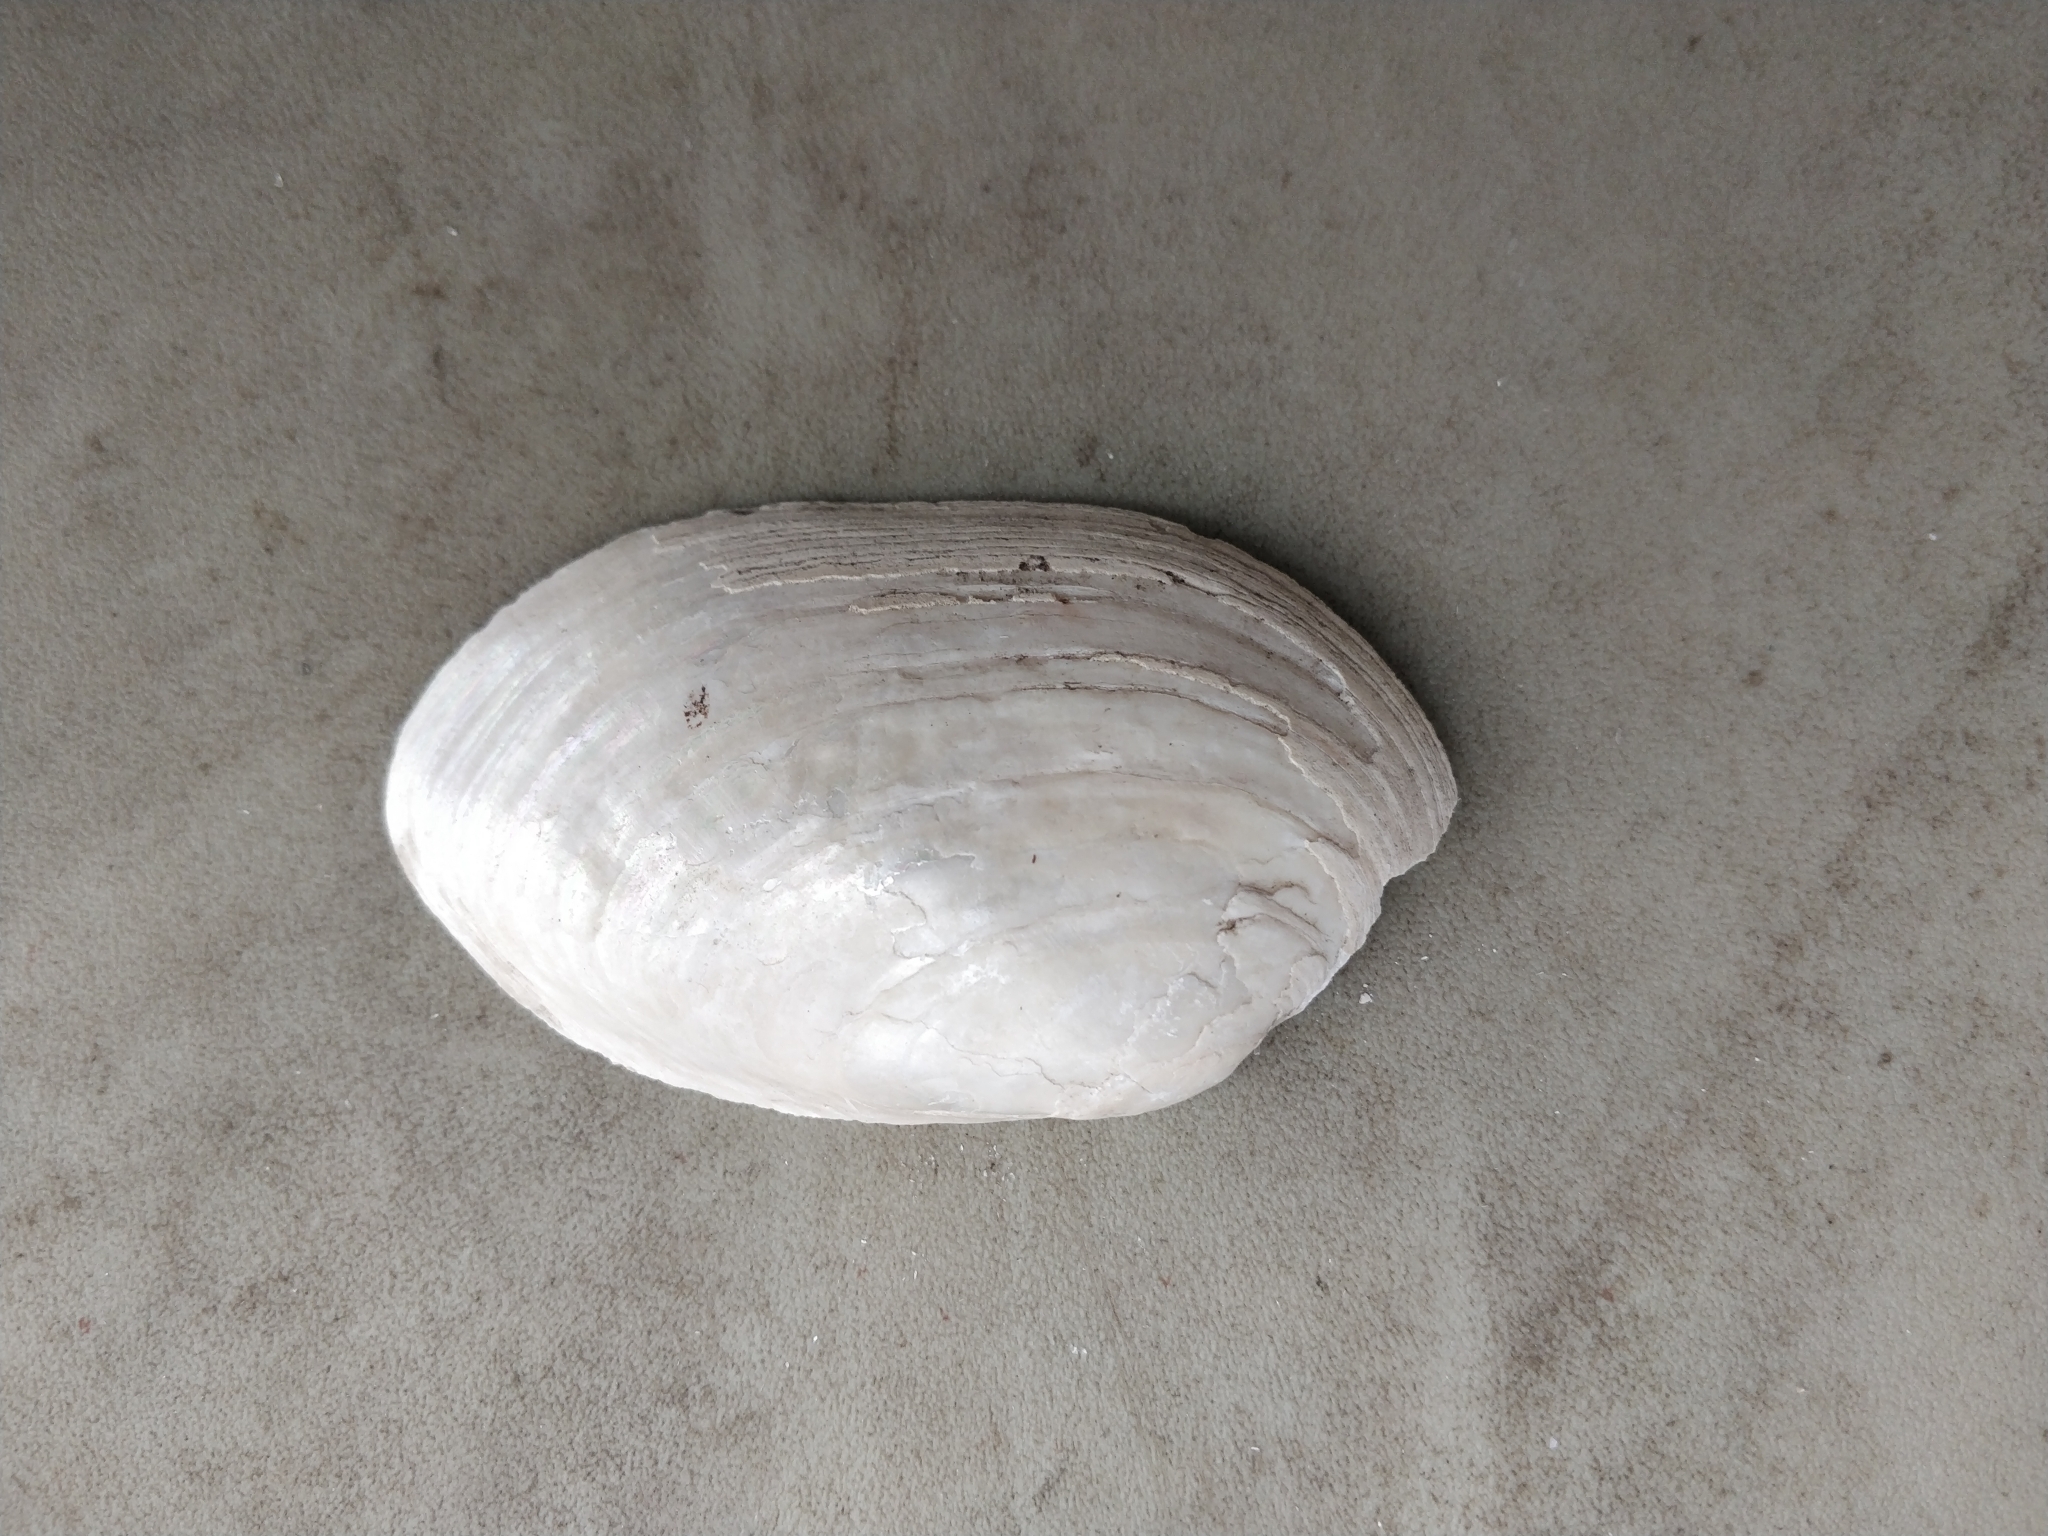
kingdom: Animalia
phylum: Mollusca
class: Bivalvia
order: Unionida
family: Unionidae
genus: Lampsilis
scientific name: Lampsilis siliquoidea
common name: Fatmucket
